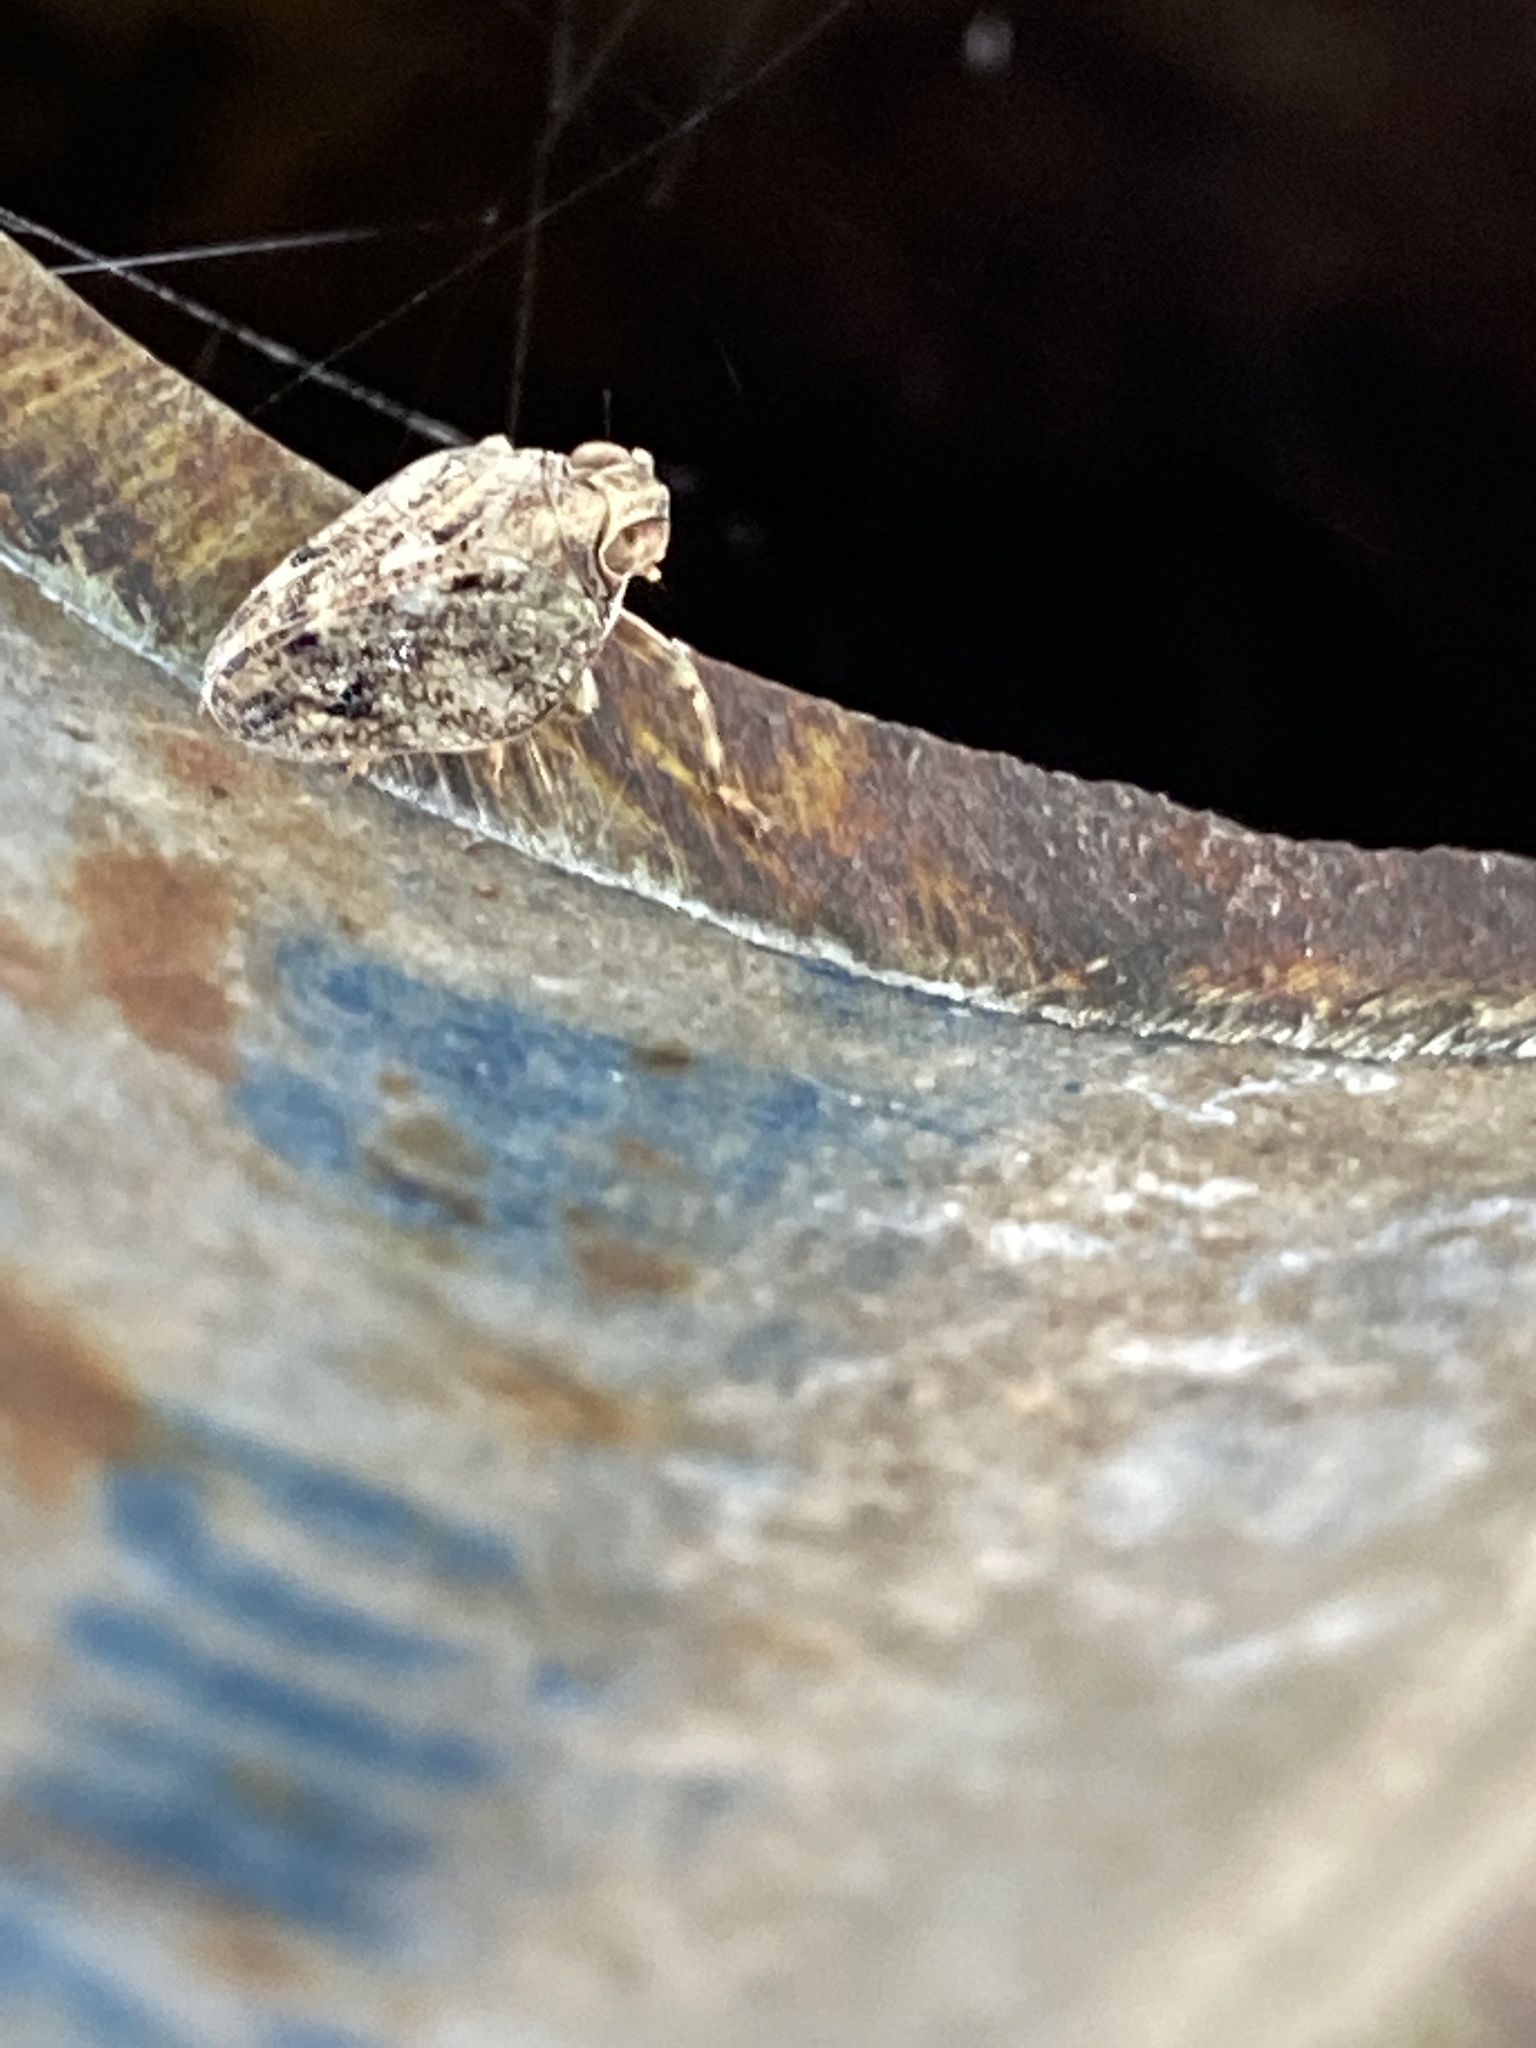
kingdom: Animalia
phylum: Arthropoda
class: Insecta
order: Hemiptera
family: Issidae
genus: Issus
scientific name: Issus coleoptratus
